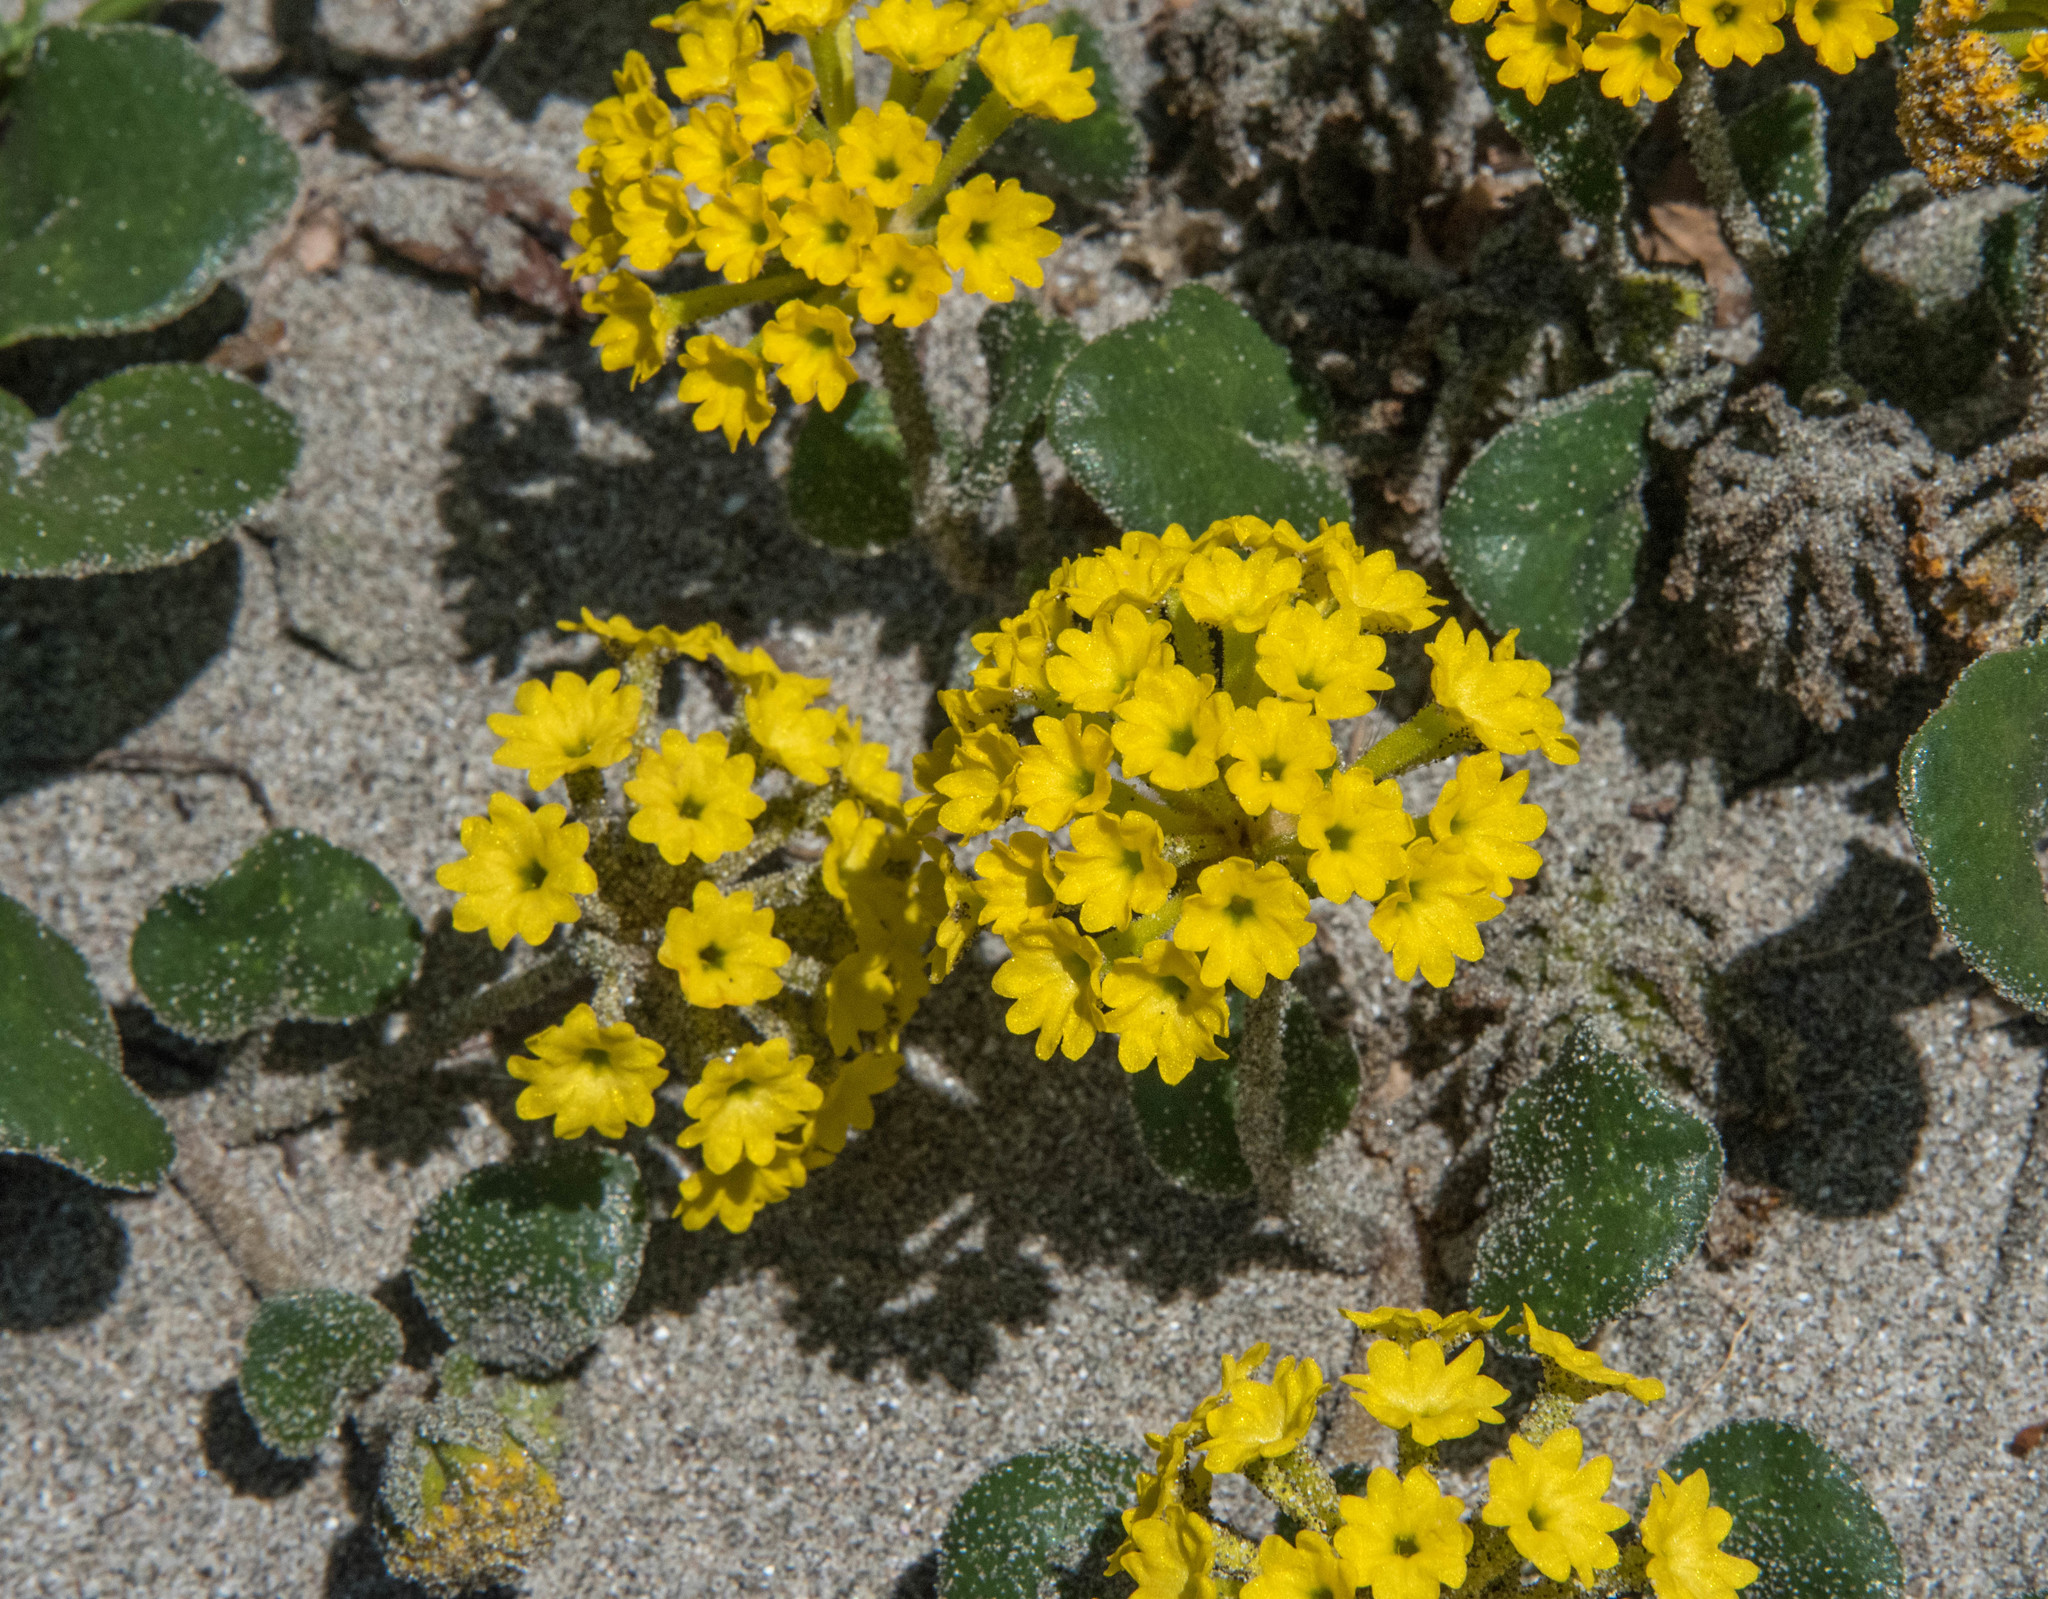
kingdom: Plantae
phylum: Tracheophyta
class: Magnoliopsida
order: Caryophyllales
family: Nyctaginaceae
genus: Abronia
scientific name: Abronia latifolia
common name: Yellow sand-verbena
